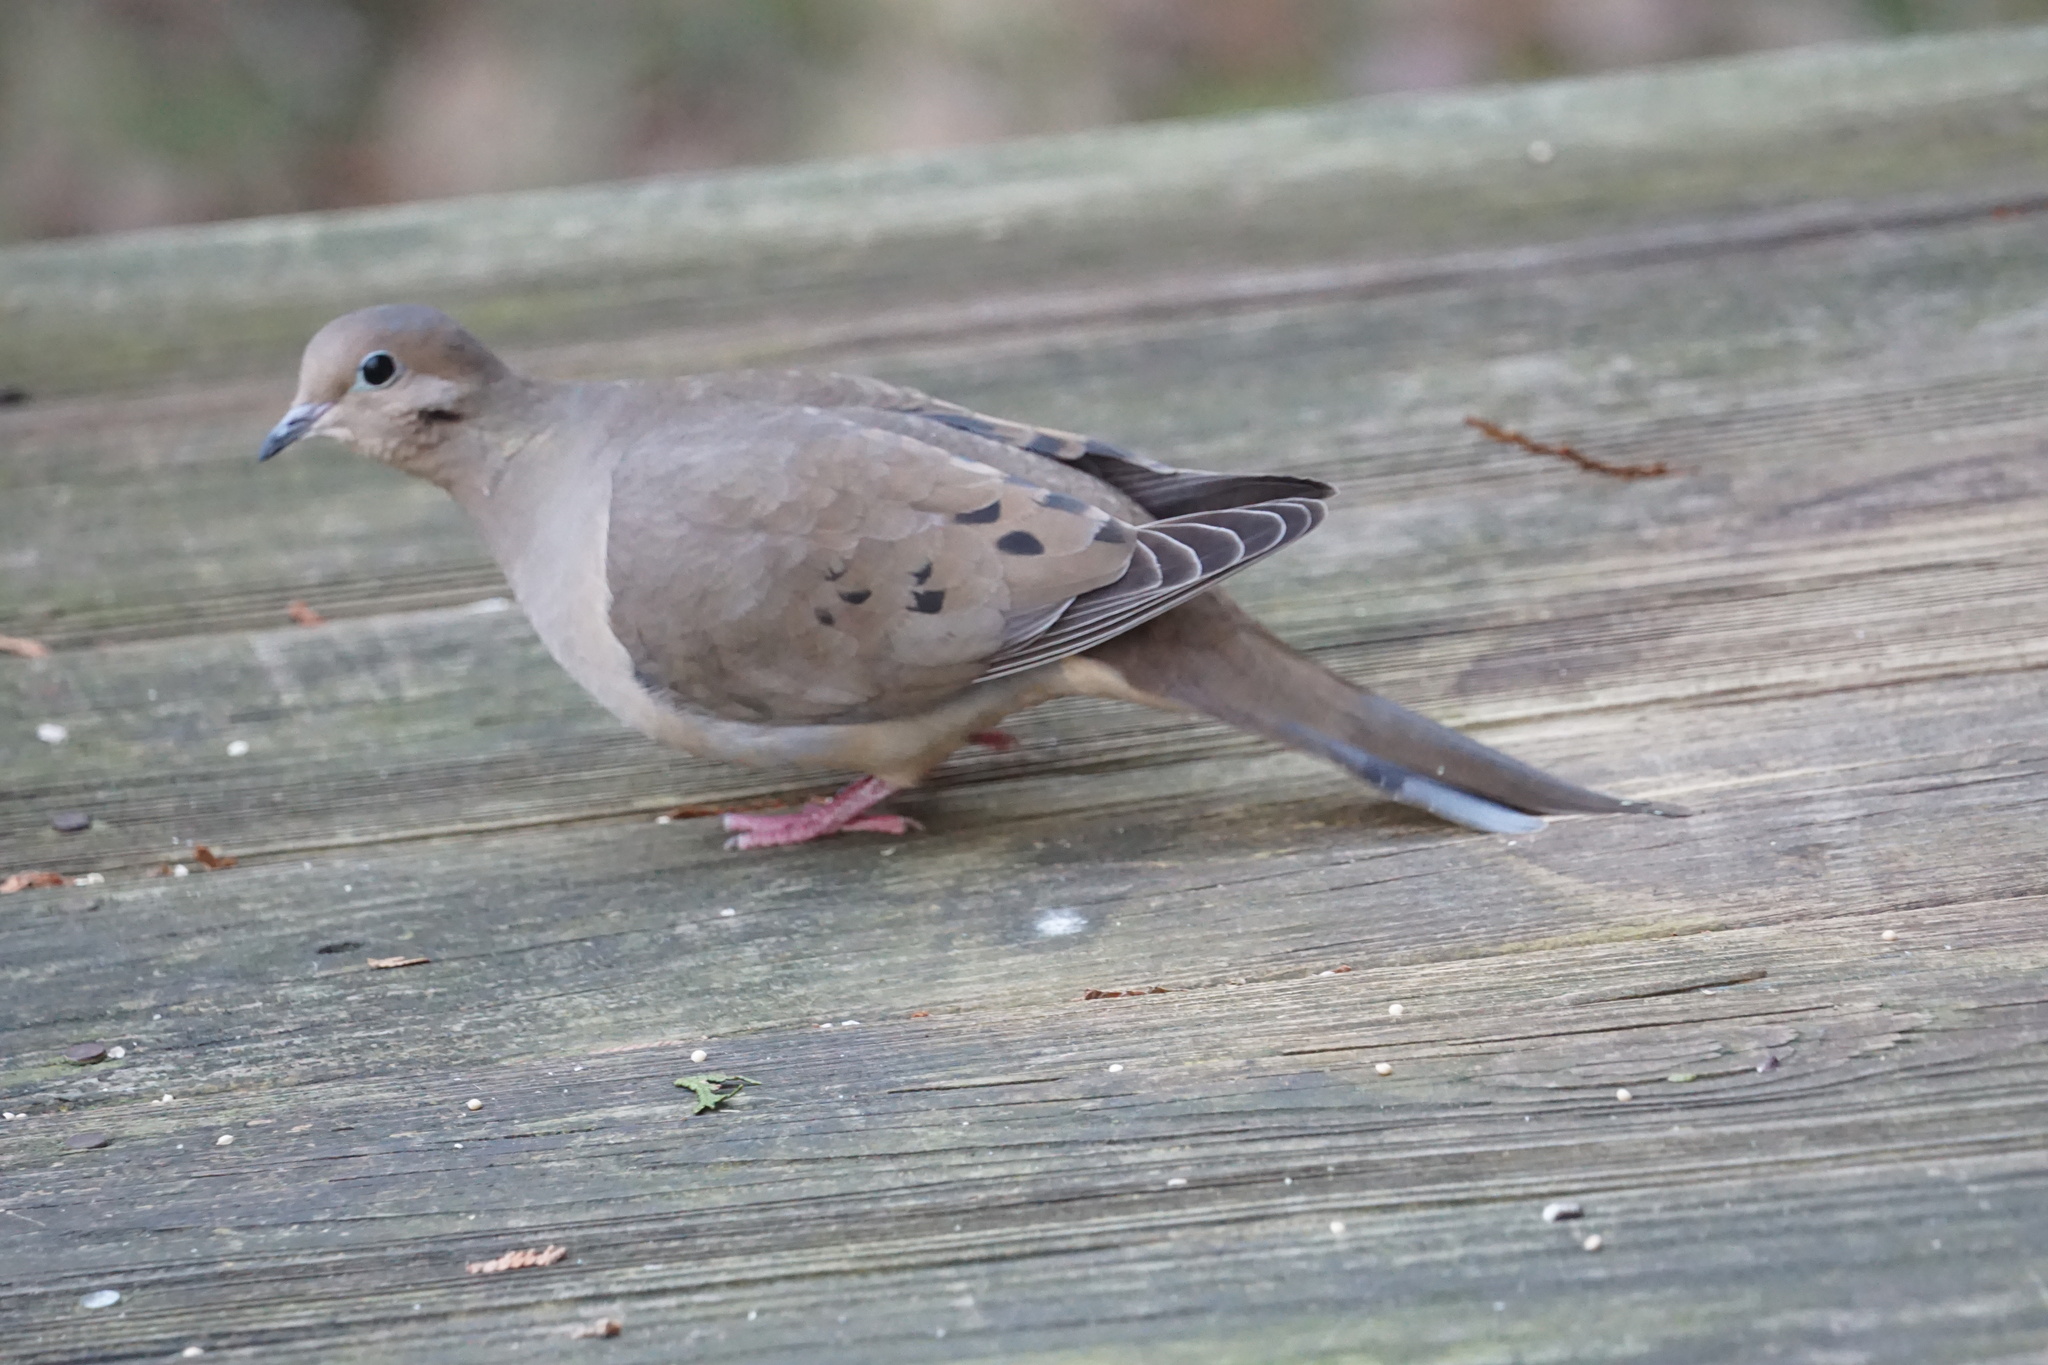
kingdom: Animalia
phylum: Chordata
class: Aves
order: Columbiformes
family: Columbidae
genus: Zenaida
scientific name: Zenaida macroura
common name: Mourning dove
